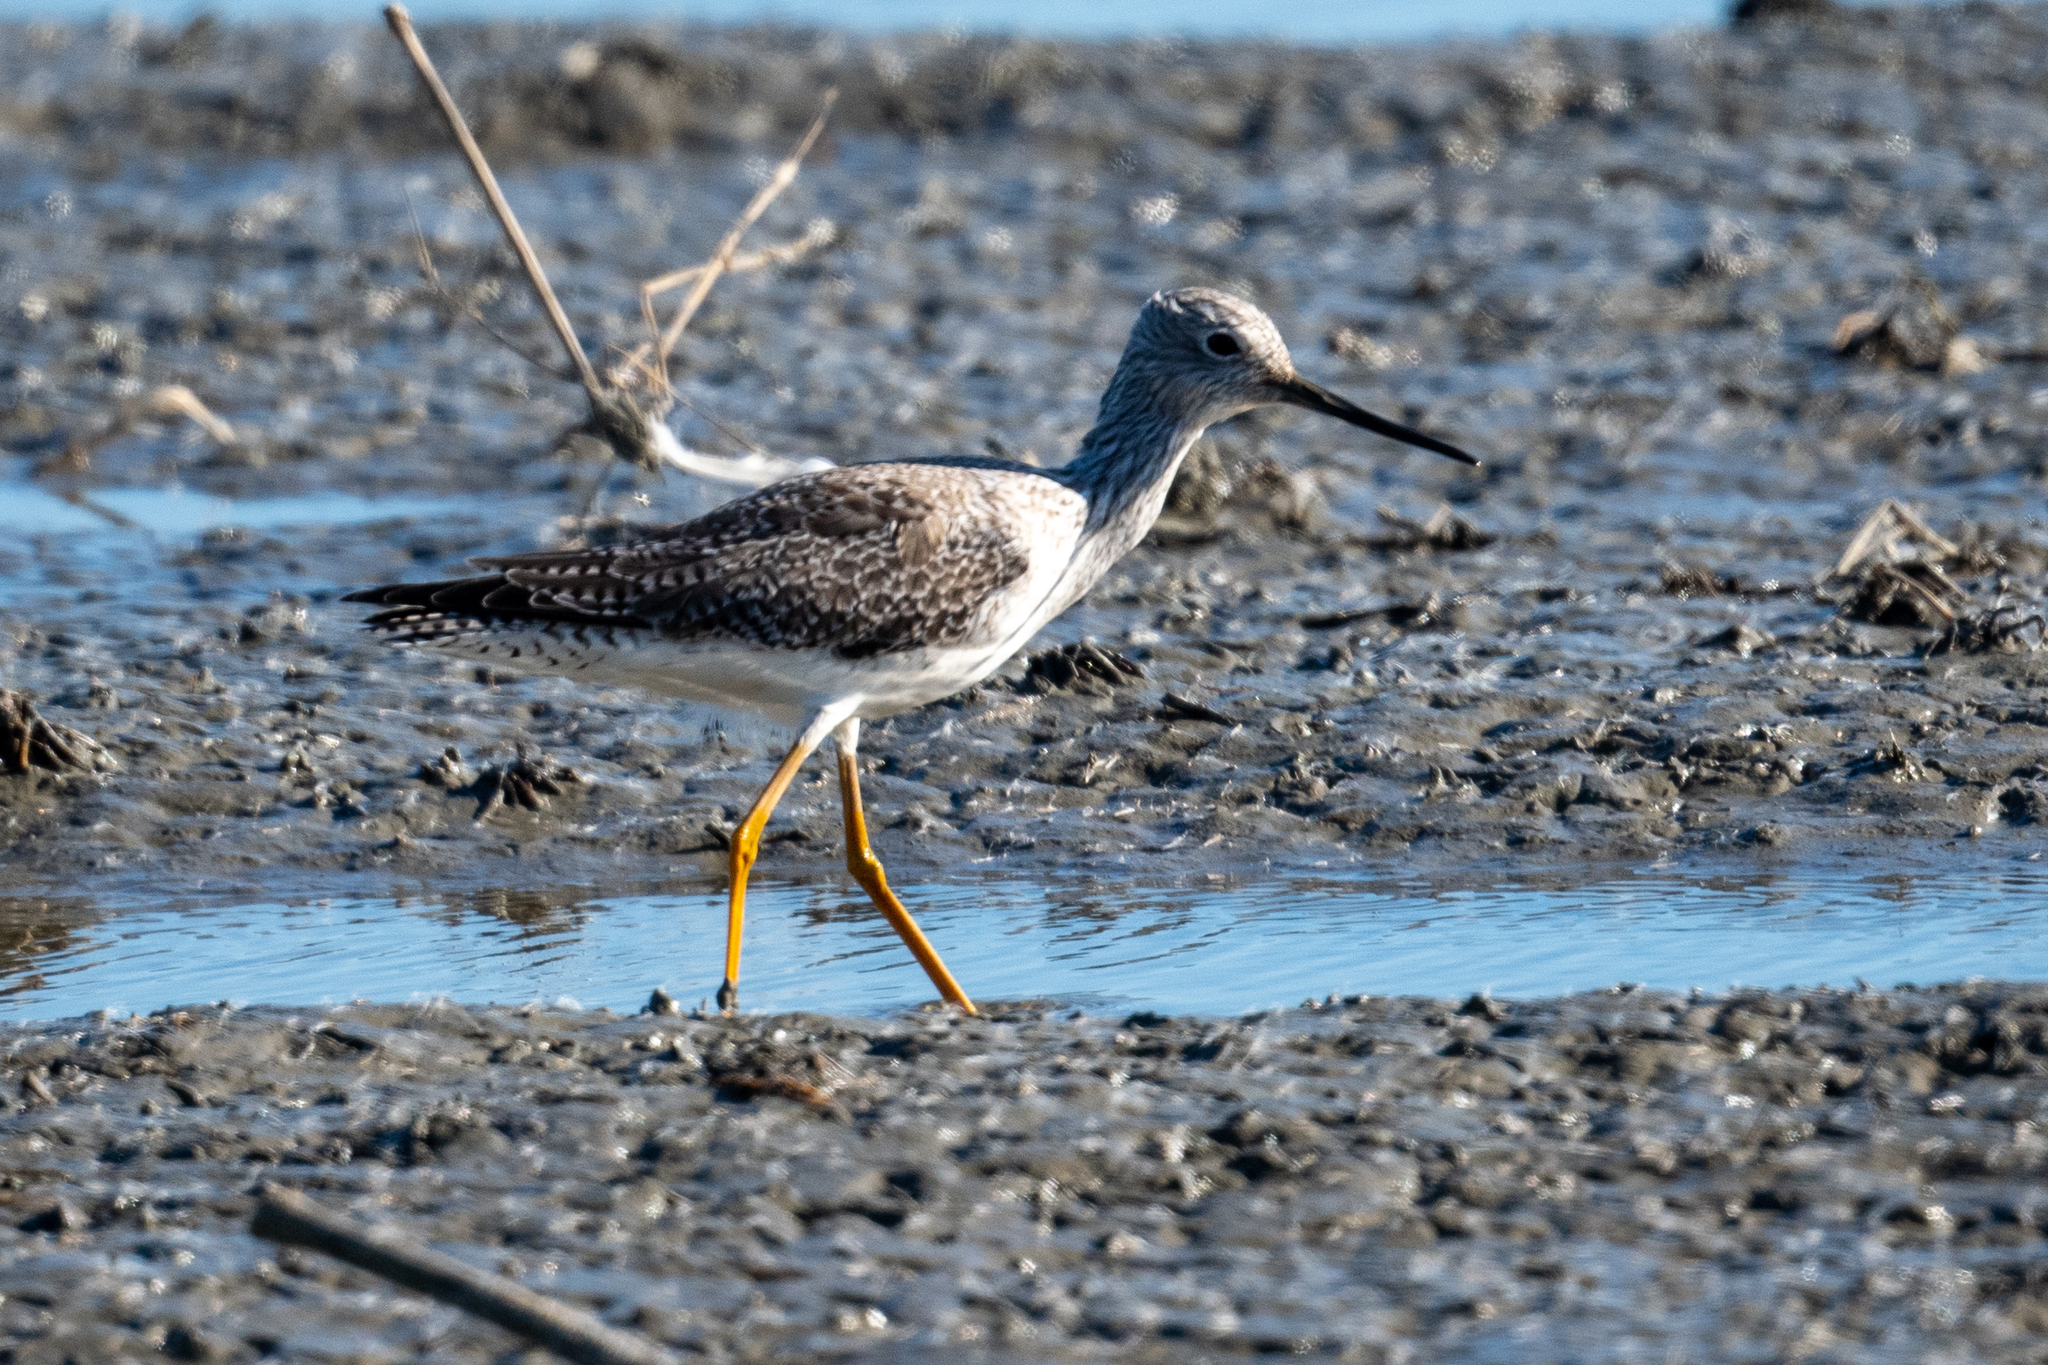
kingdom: Animalia
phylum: Chordata
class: Aves
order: Charadriiformes
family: Scolopacidae
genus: Tringa
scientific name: Tringa melanoleuca
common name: Greater yellowlegs
